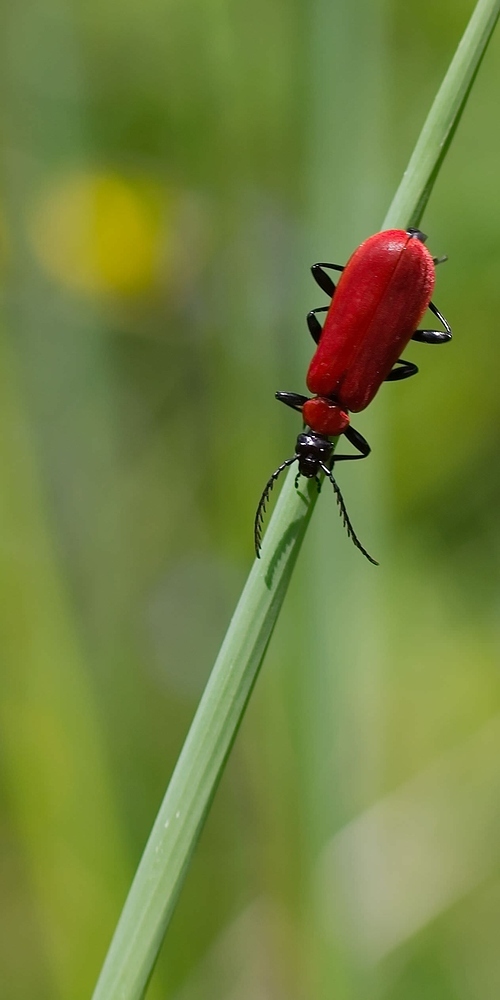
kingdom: Animalia
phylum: Arthropoda
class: Insecta
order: Coleoptera
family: Pyrochroidae
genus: Pyrochroa
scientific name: Pyrochroa coccinea
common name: Black-headed cardinal beetle
